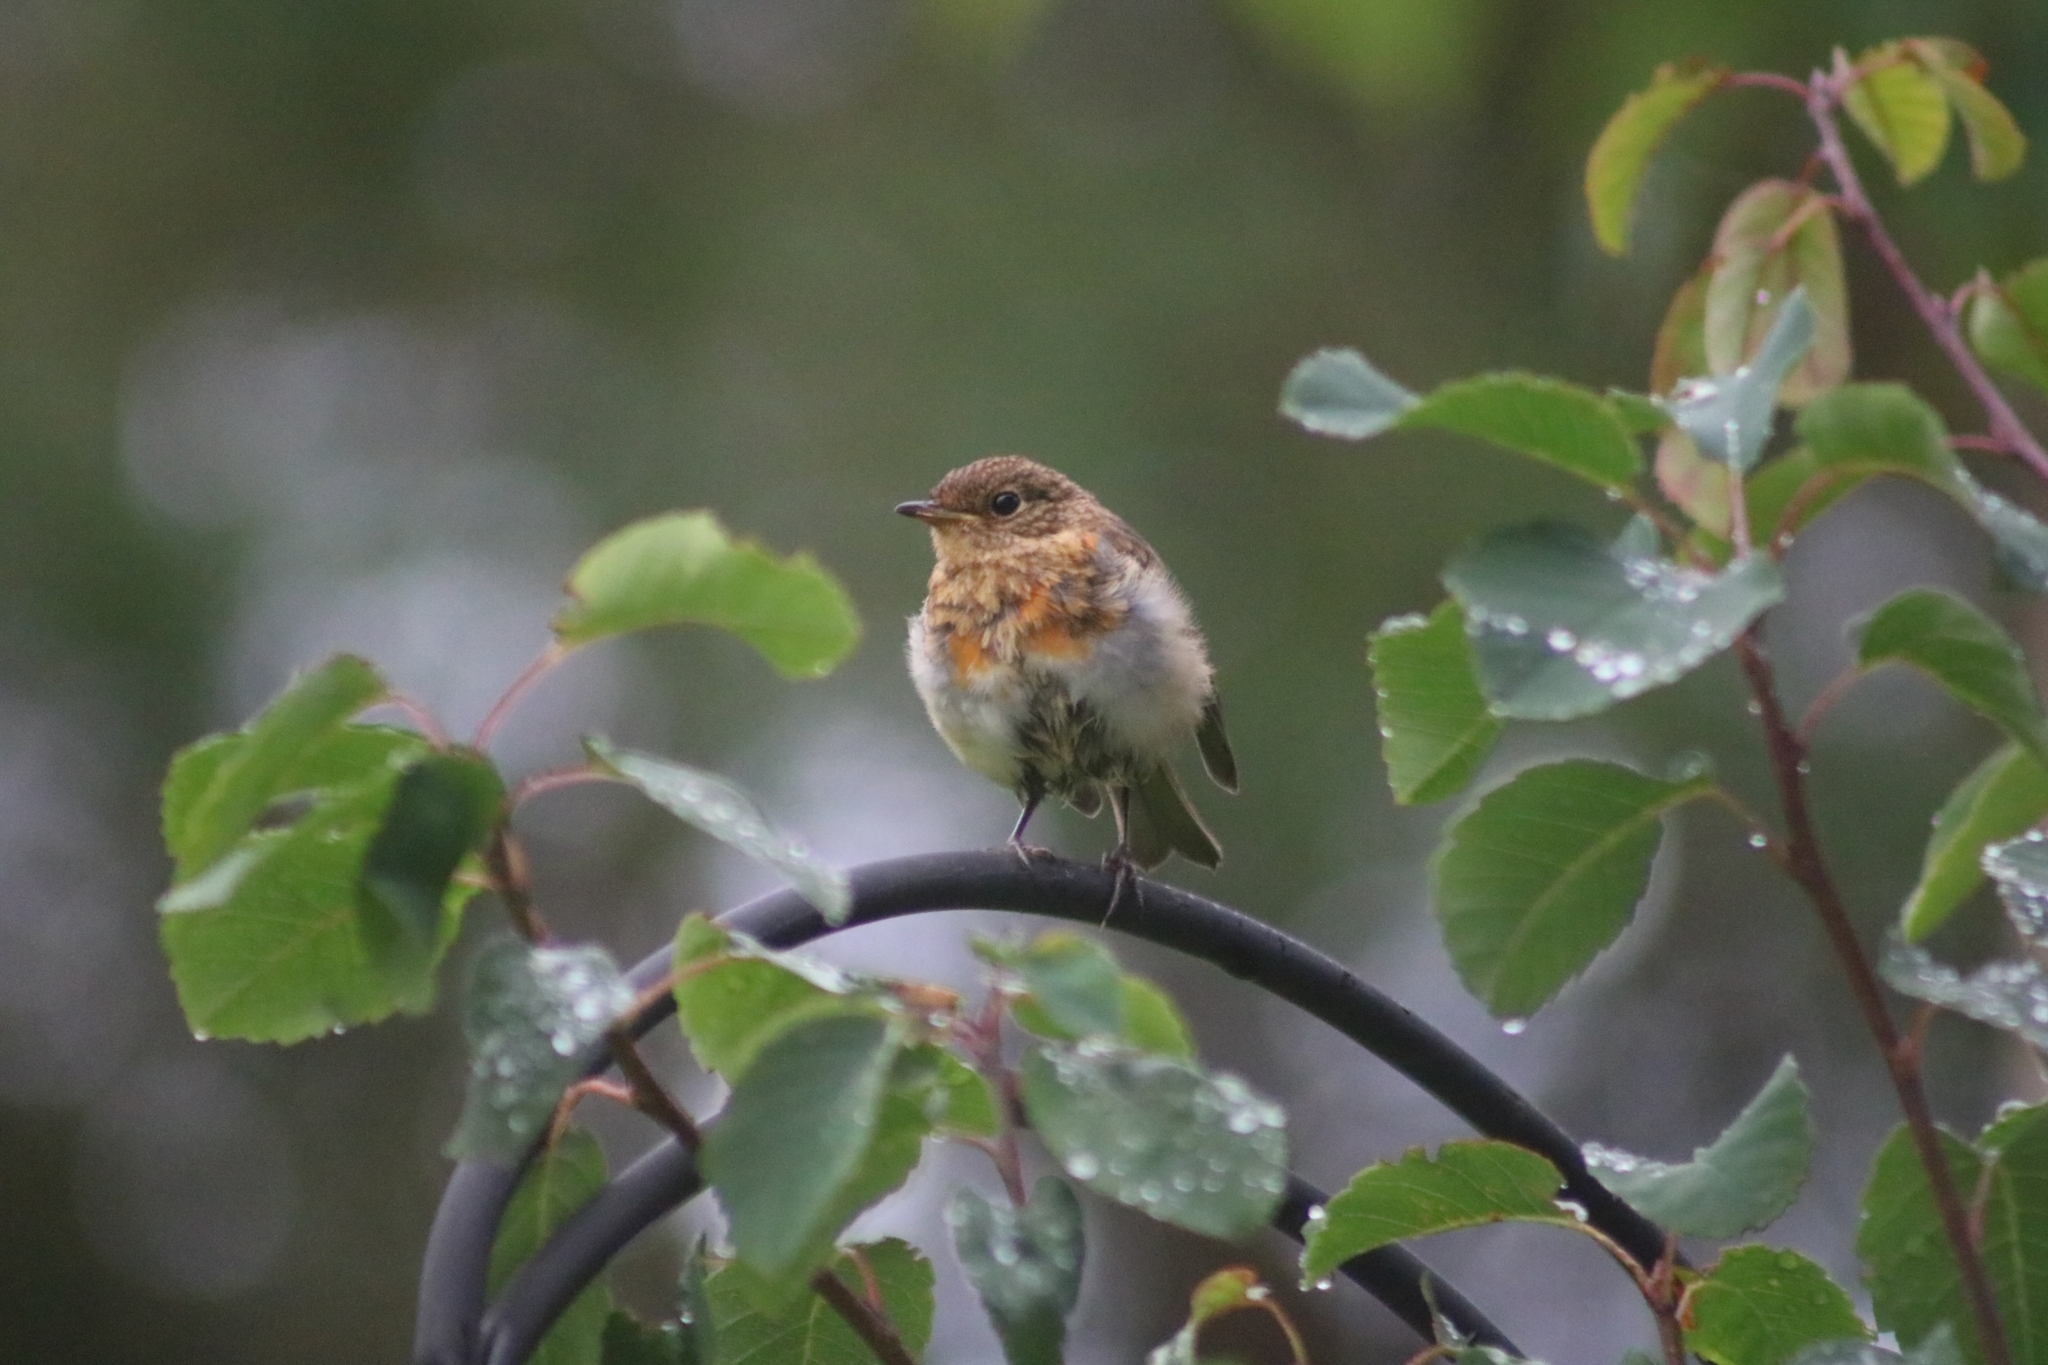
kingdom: Animalia
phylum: Chordata
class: Aves
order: Passeriformes
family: Muscicapidae
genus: Erithacus
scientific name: Erithacus rubecula
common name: European robin
